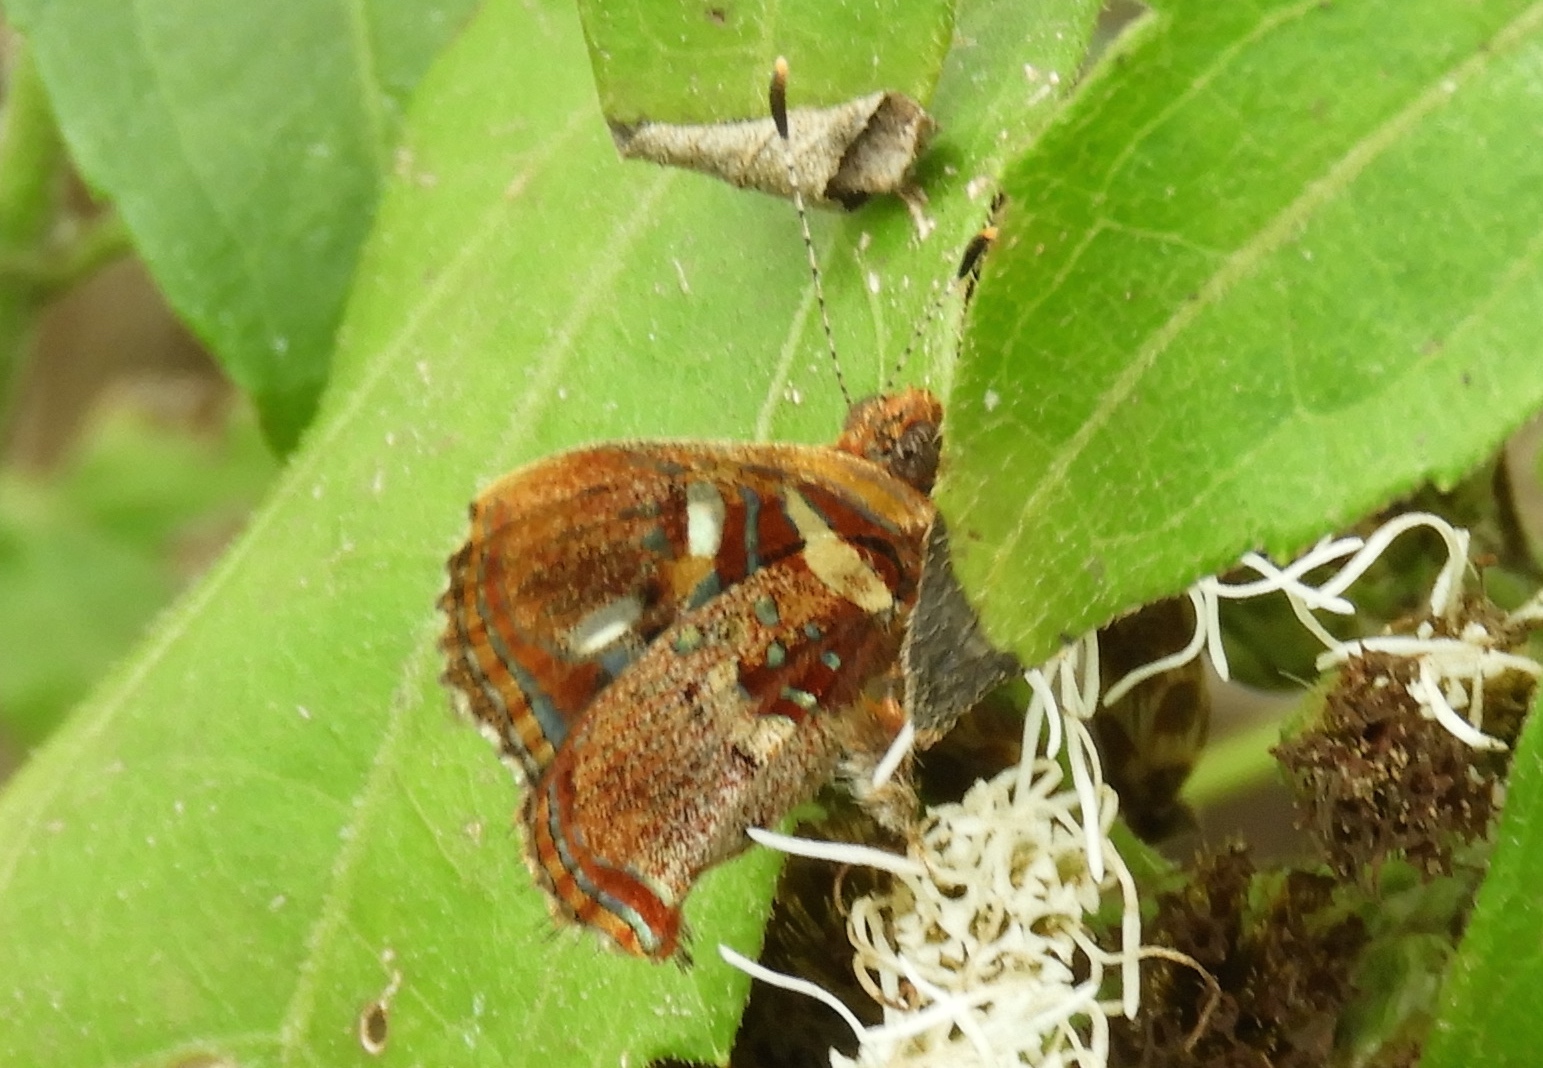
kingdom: Animalia
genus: Anteros
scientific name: Anteros carausius
